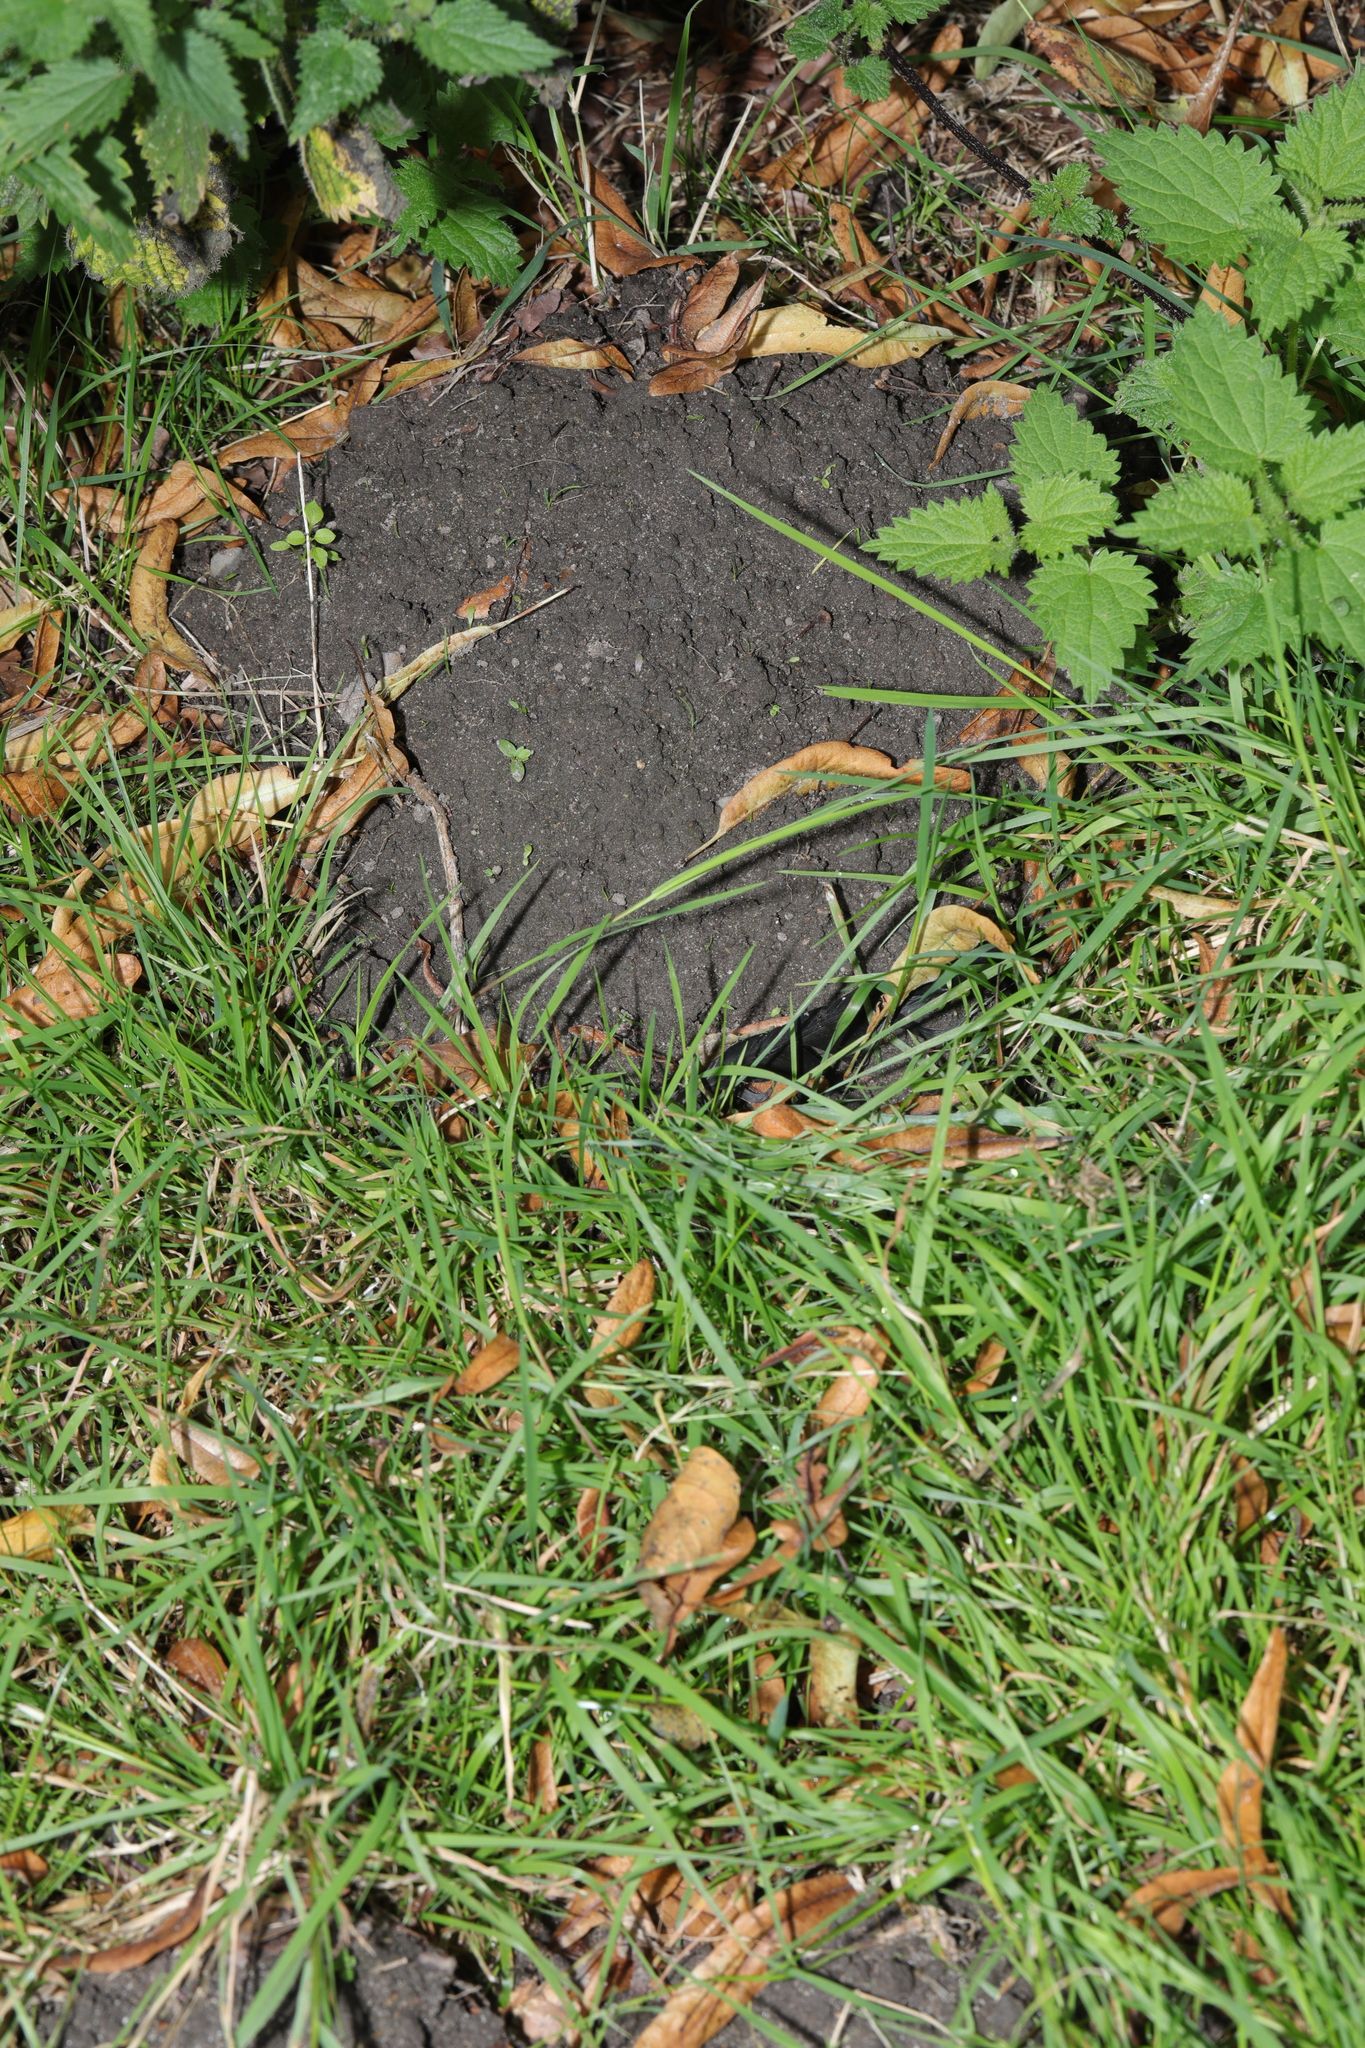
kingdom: Animalia
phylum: Chordata
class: Mammalia
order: Soricomorpha
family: Talpidae
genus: Talpa
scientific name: Talpa europaea
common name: European mole
